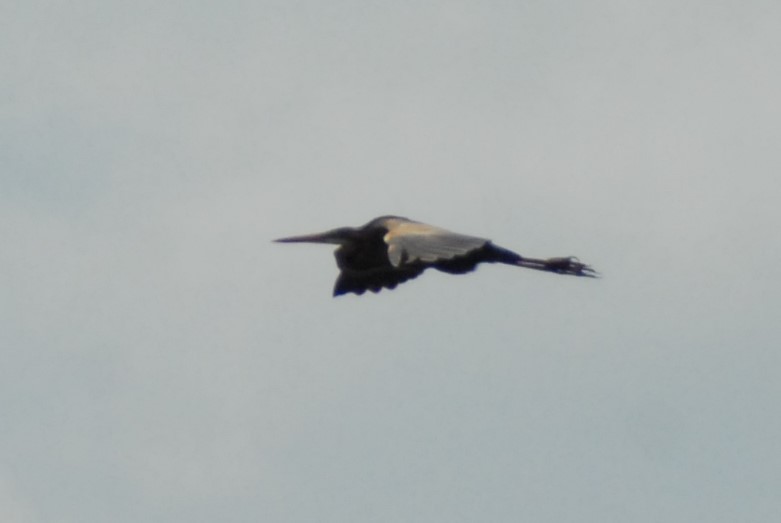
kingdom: Animalia
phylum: Chordata
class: Aves
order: Pelecaniformes
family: Ardeidae
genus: Ardea
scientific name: Ardea purpurea
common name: Purple heron
